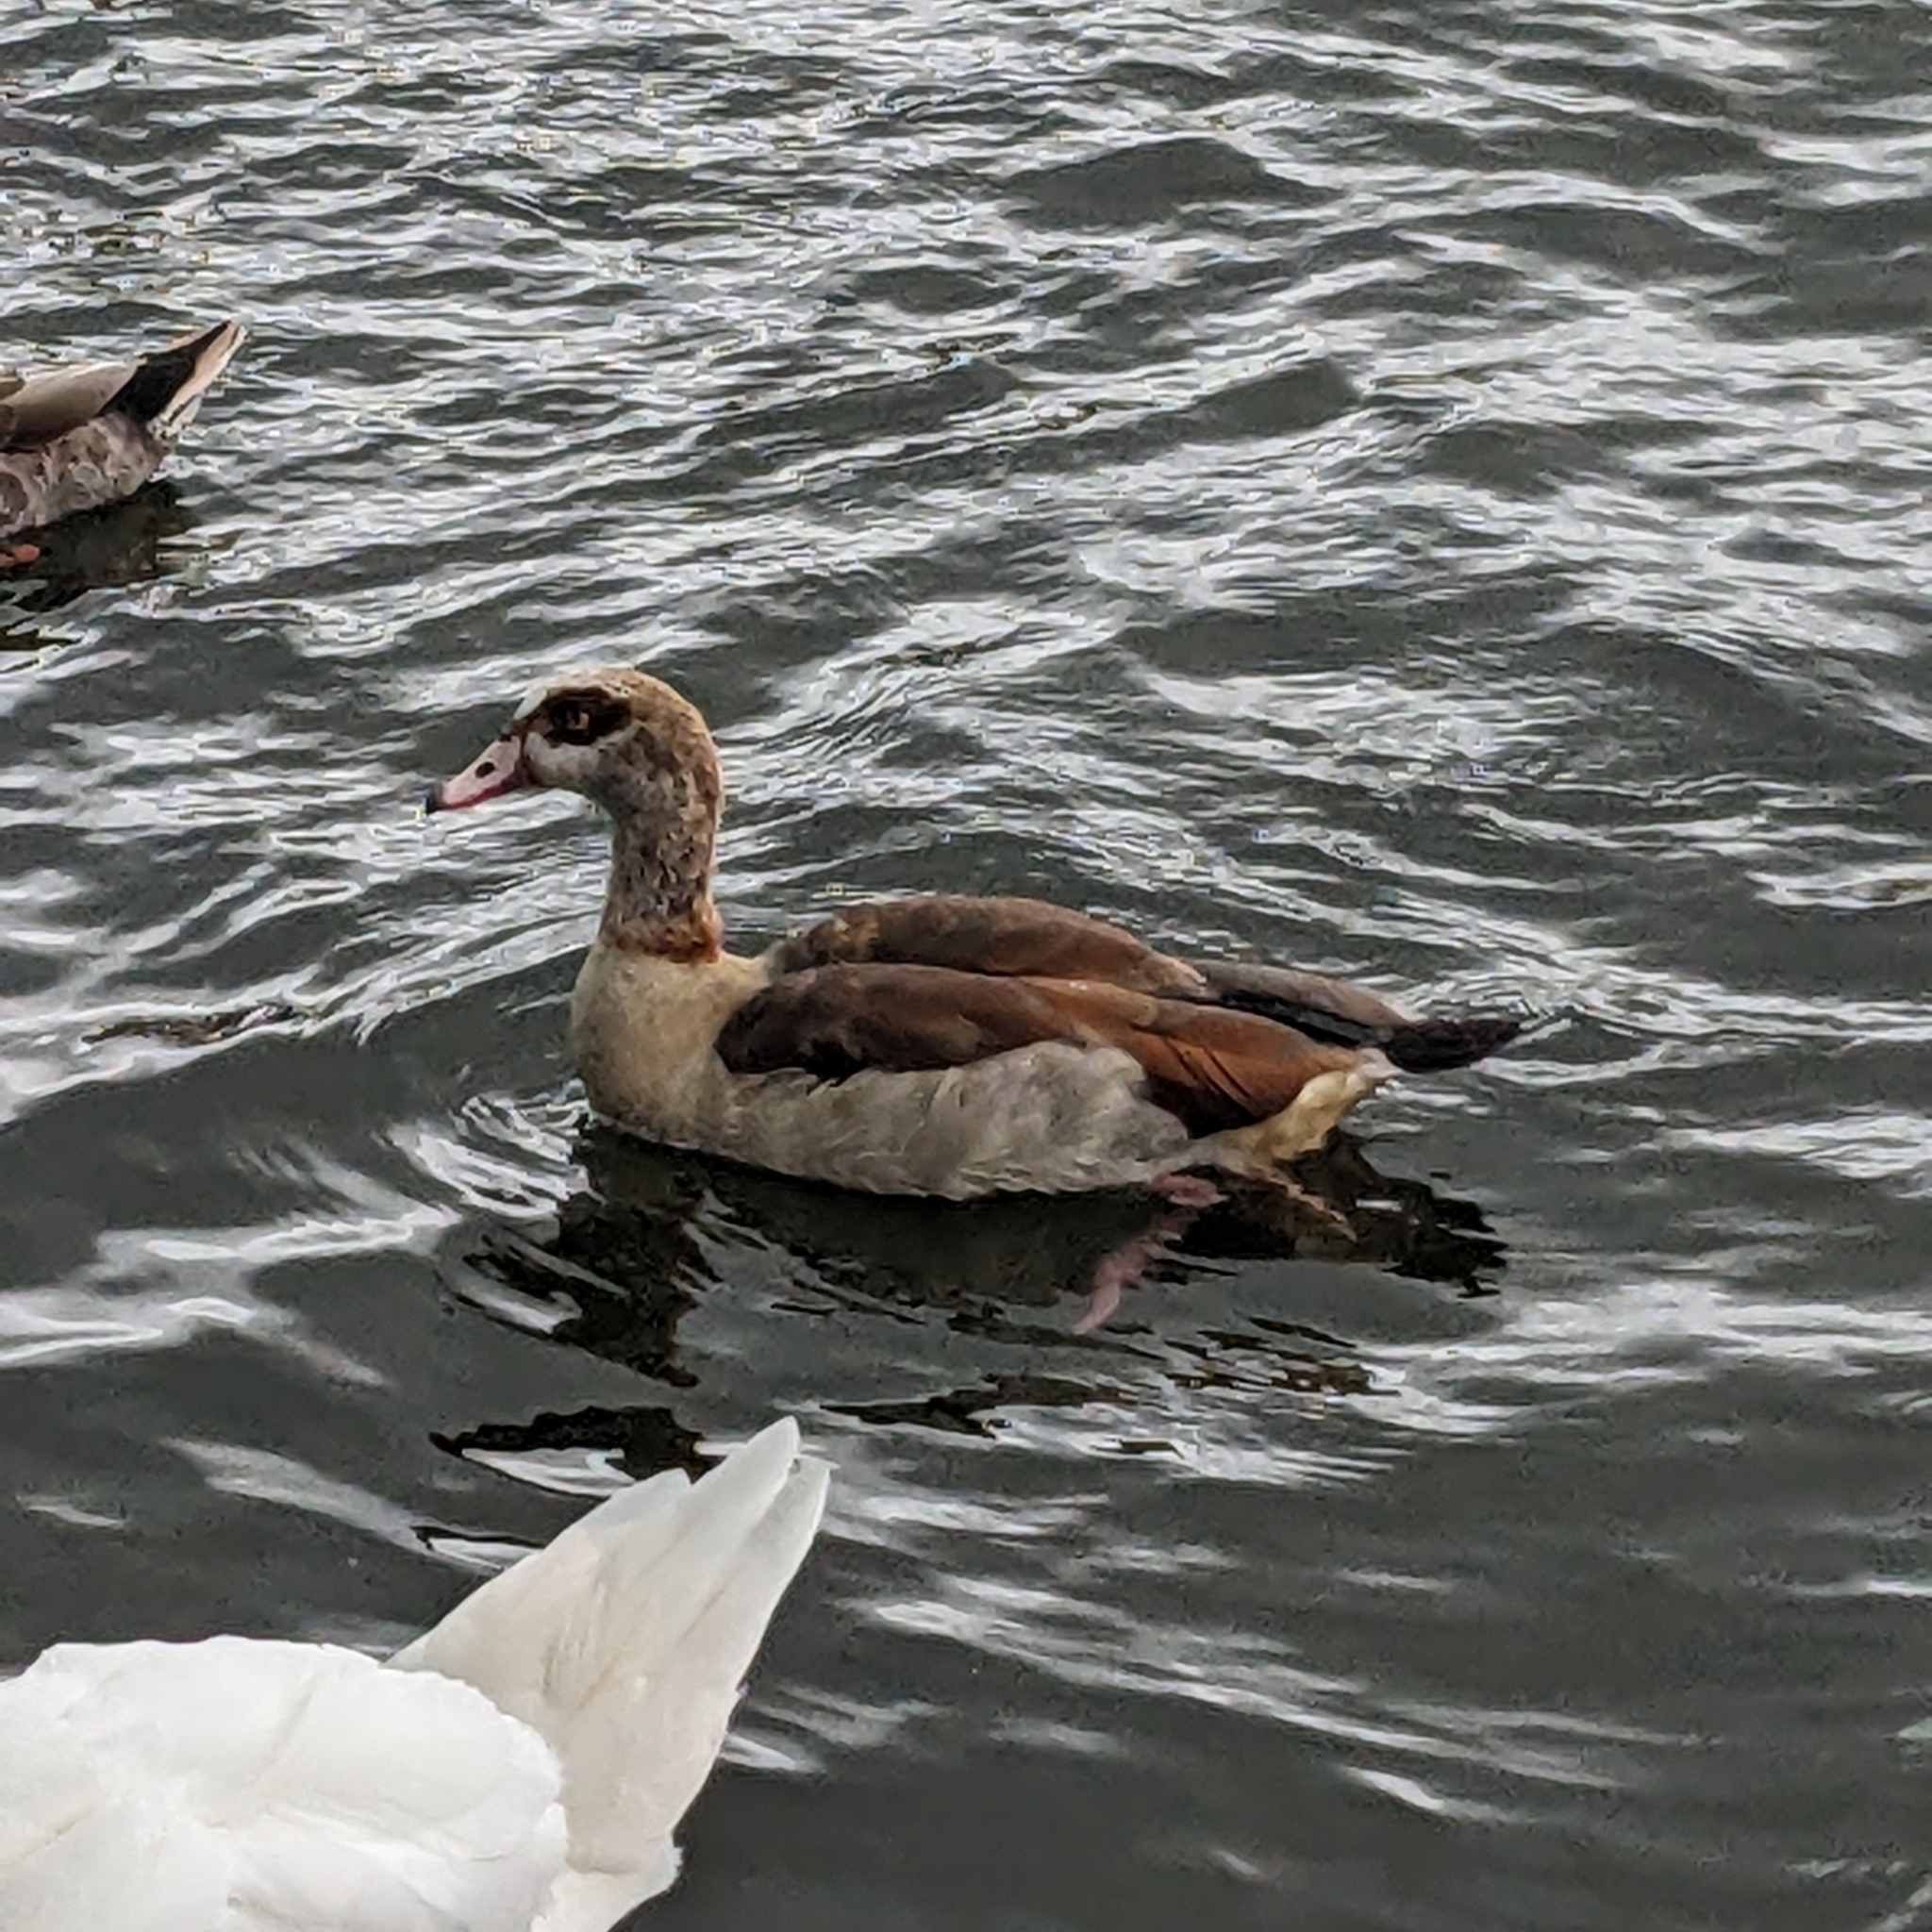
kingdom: Animalia
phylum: Chordata
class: Aves
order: Anseriformes
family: Anatidae
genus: Alopochen
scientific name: Alopochen aegyptiaca
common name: Egyptian goose
